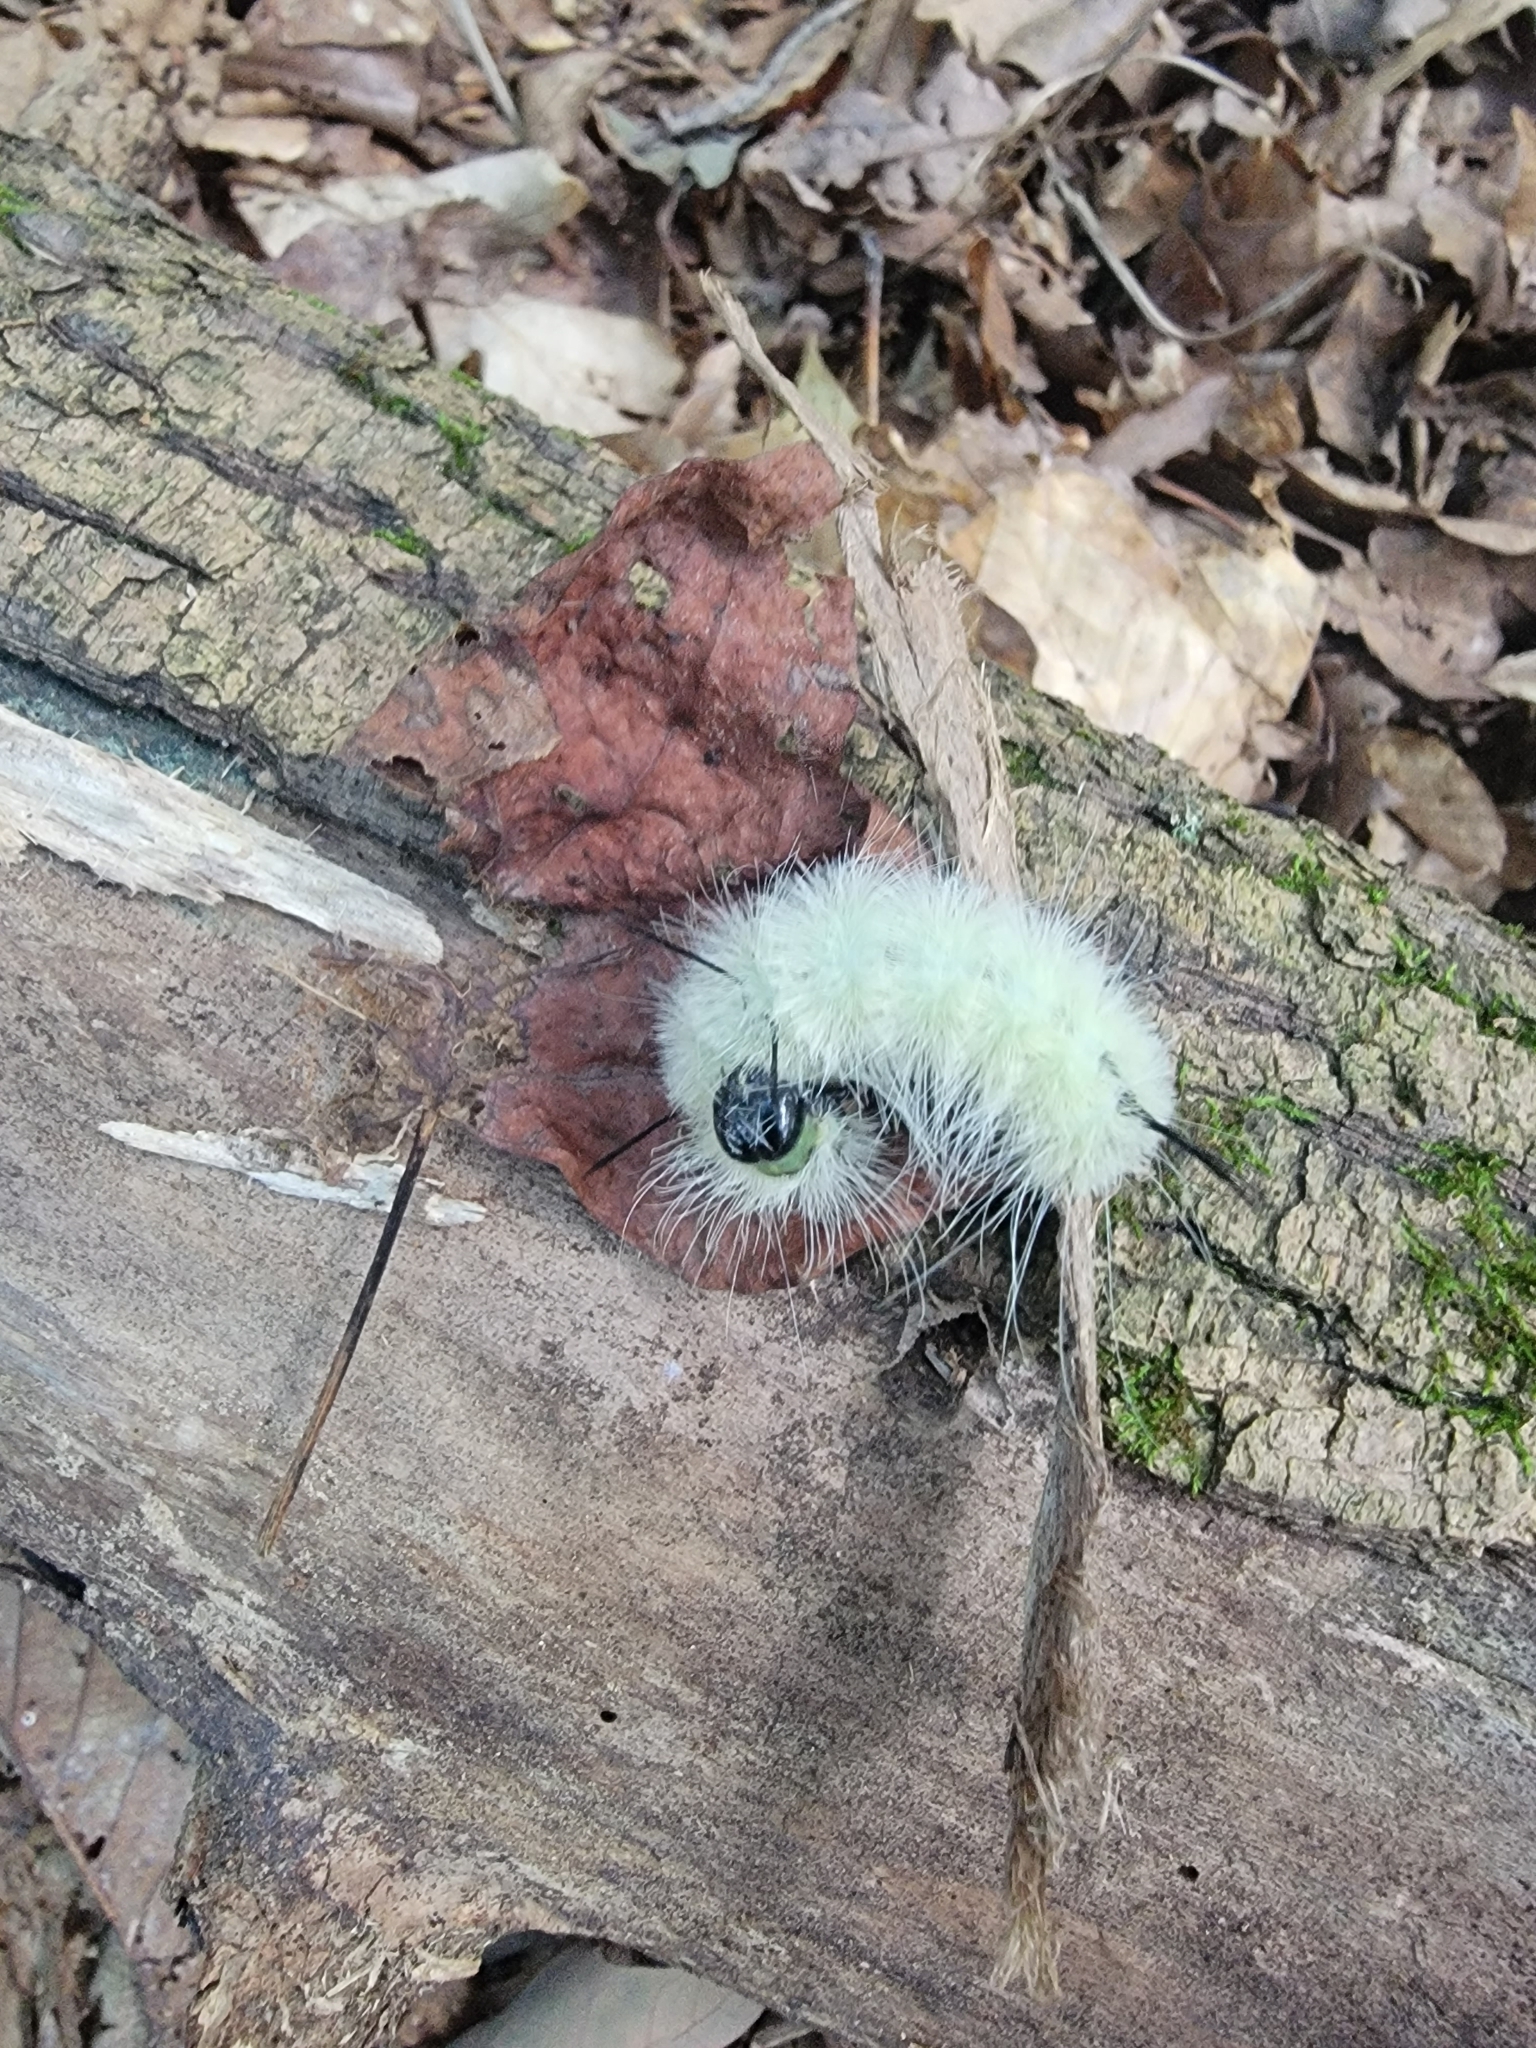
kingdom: Animalia
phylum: Arthropoda
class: Insecta
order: Lepidoptera
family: Noctuidae
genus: Acronicta
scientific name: Acronicta americana
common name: American dagger
